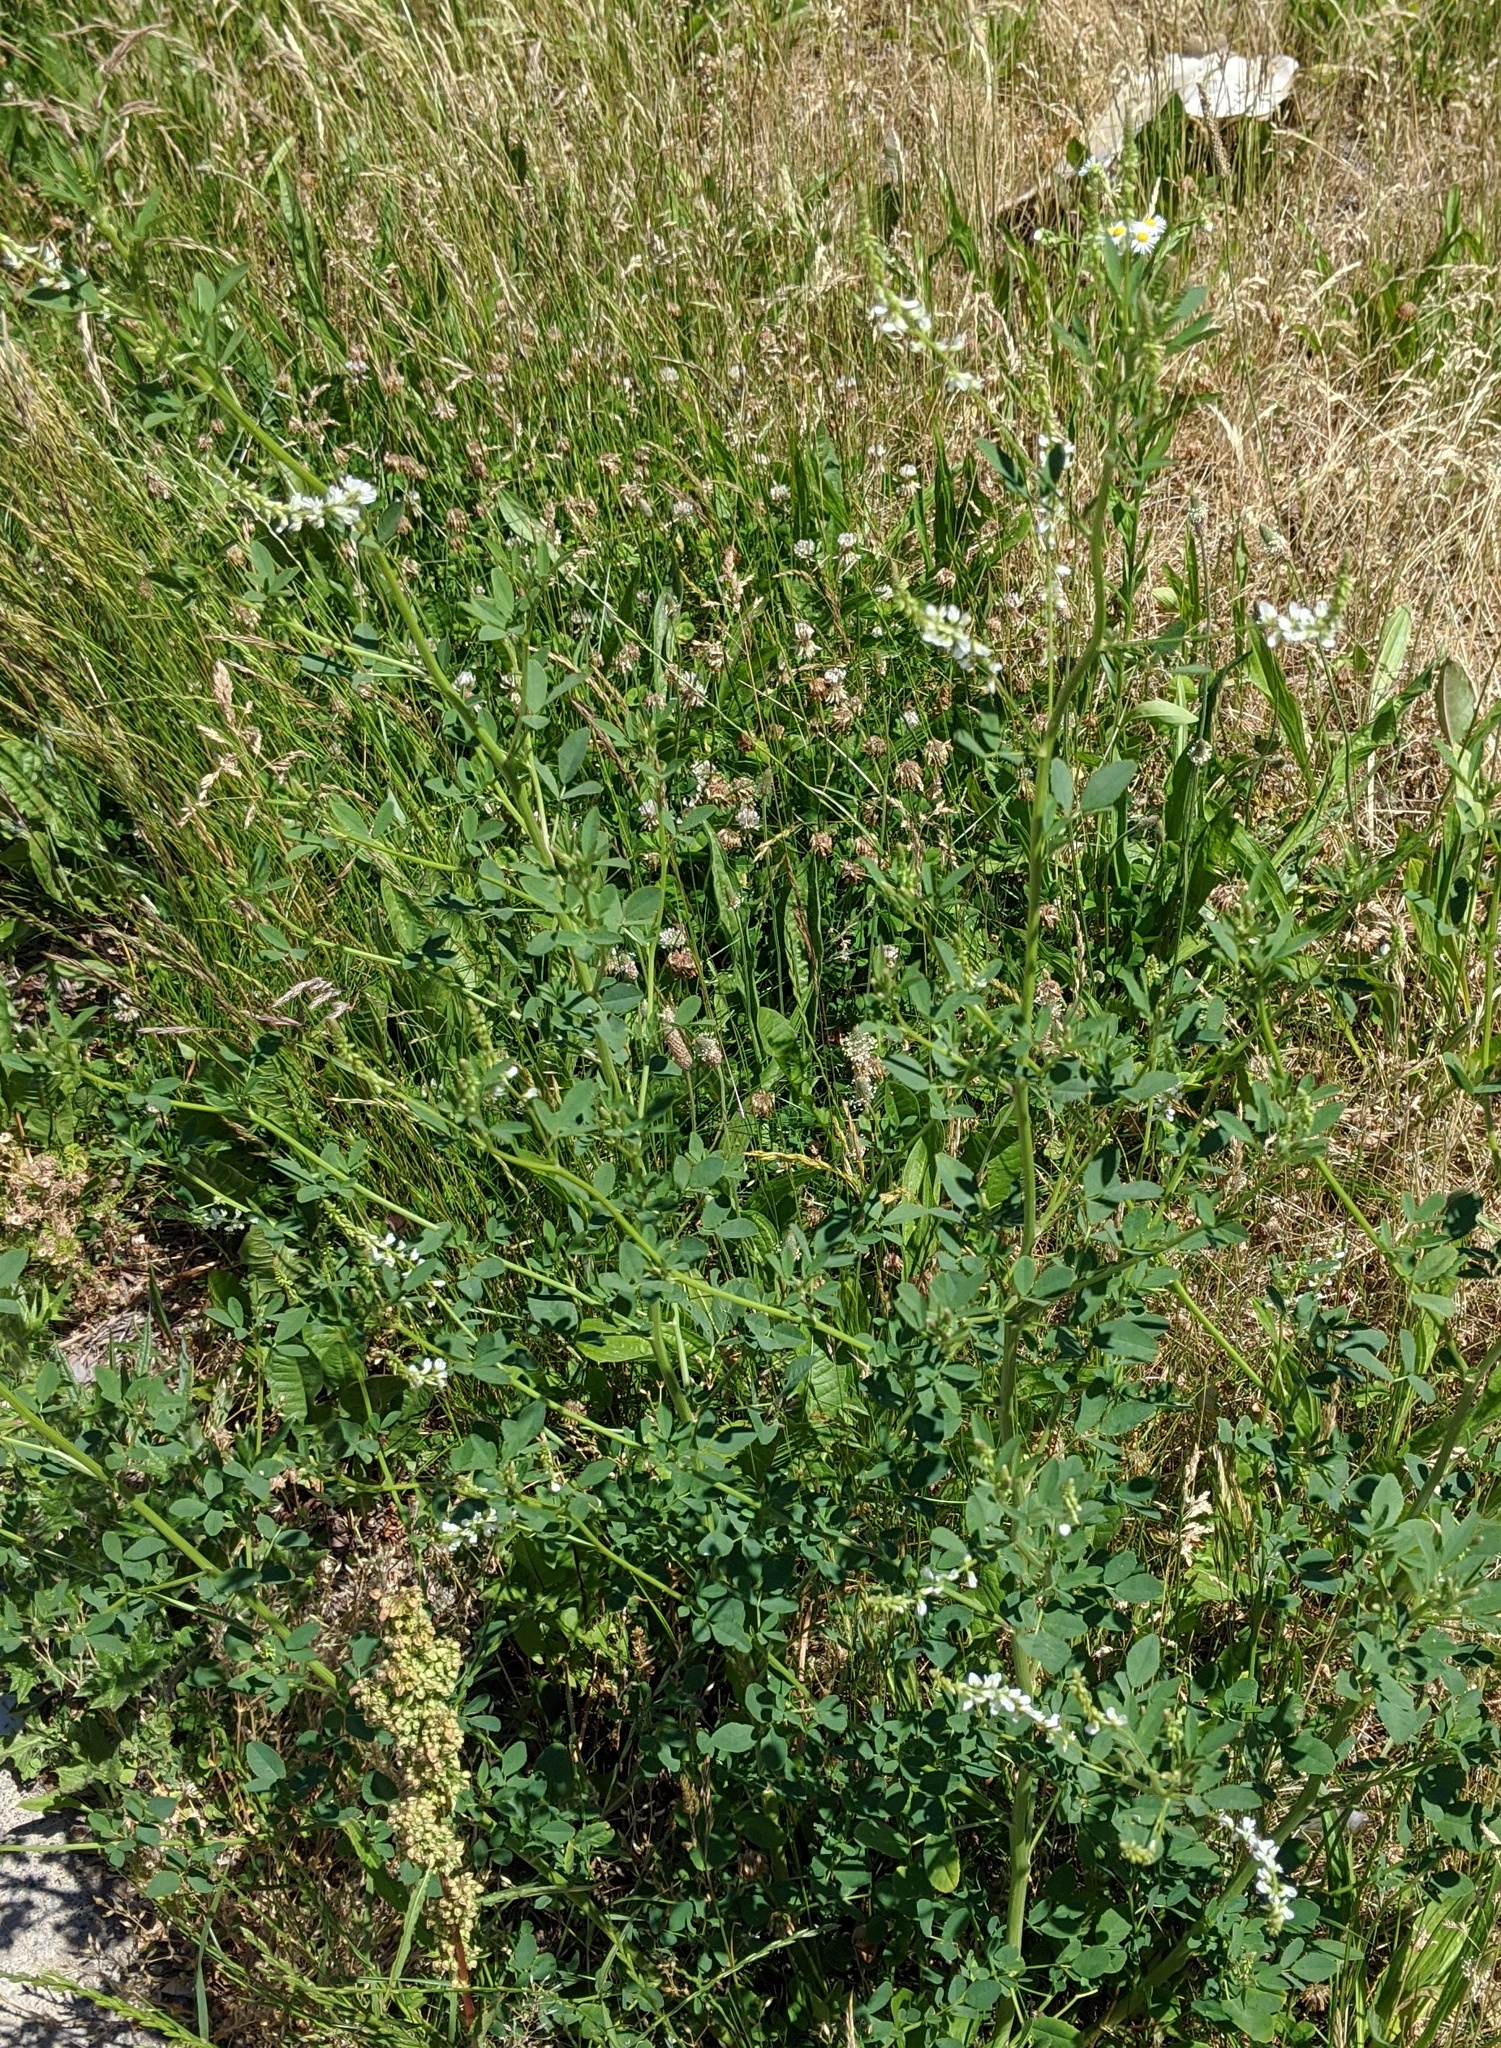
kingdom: Plantae
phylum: Tracheophyta
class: Magnoliopsida
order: Fabales
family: Fabaceae
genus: Melilotus
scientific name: Melilotus albus
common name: White melilot
